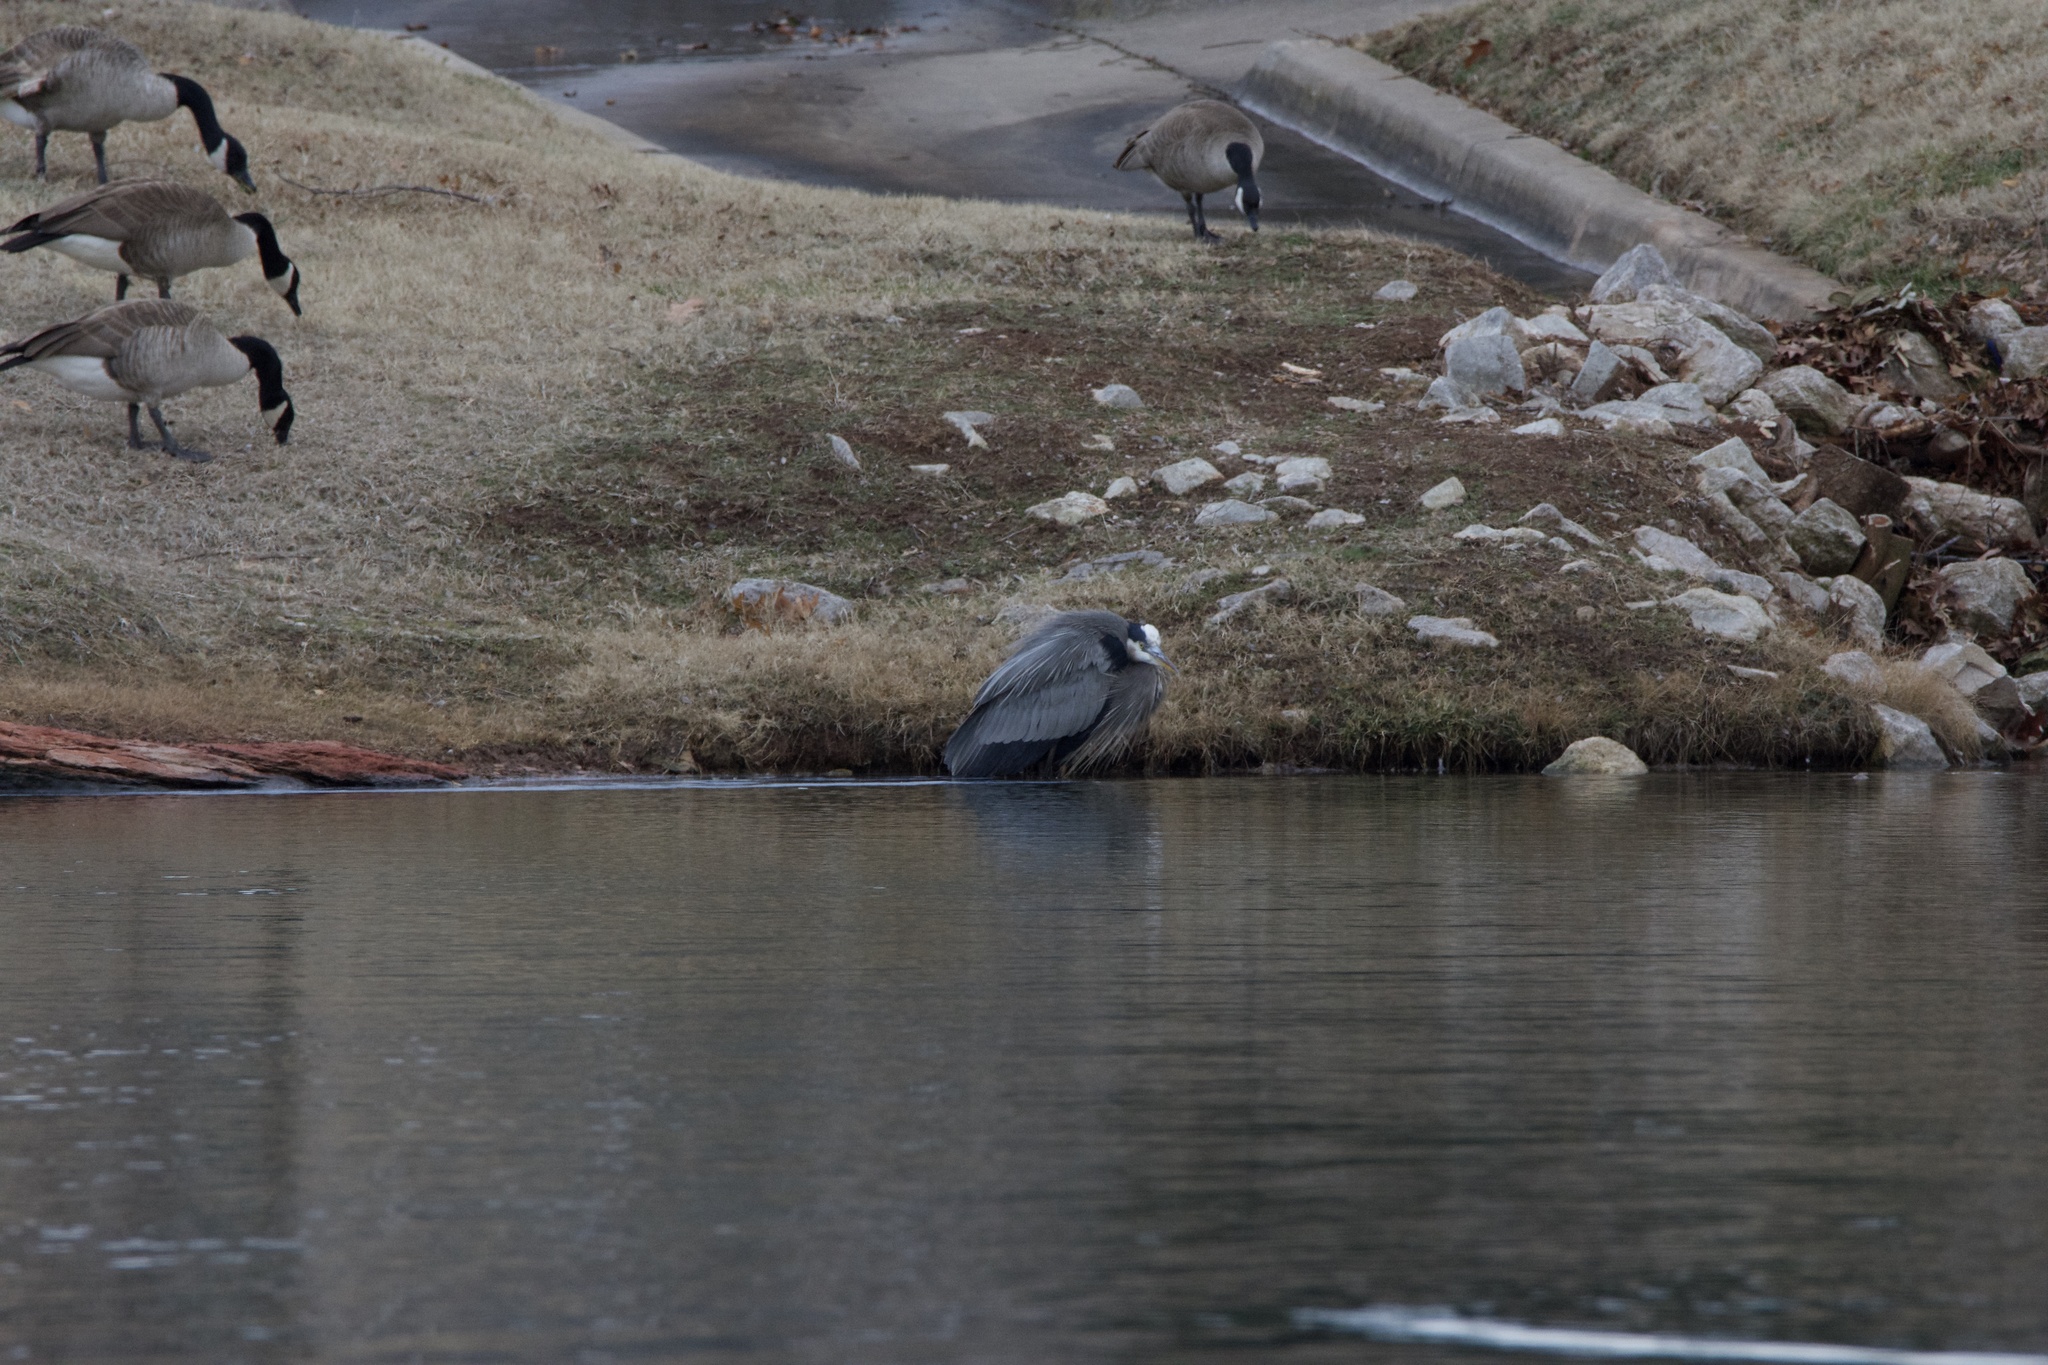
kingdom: Animalia
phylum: Chordata
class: Aves
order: Pelecaniformes
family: Ardeidae
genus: Ardea
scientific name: Ardea herodias
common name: Great blue heron
